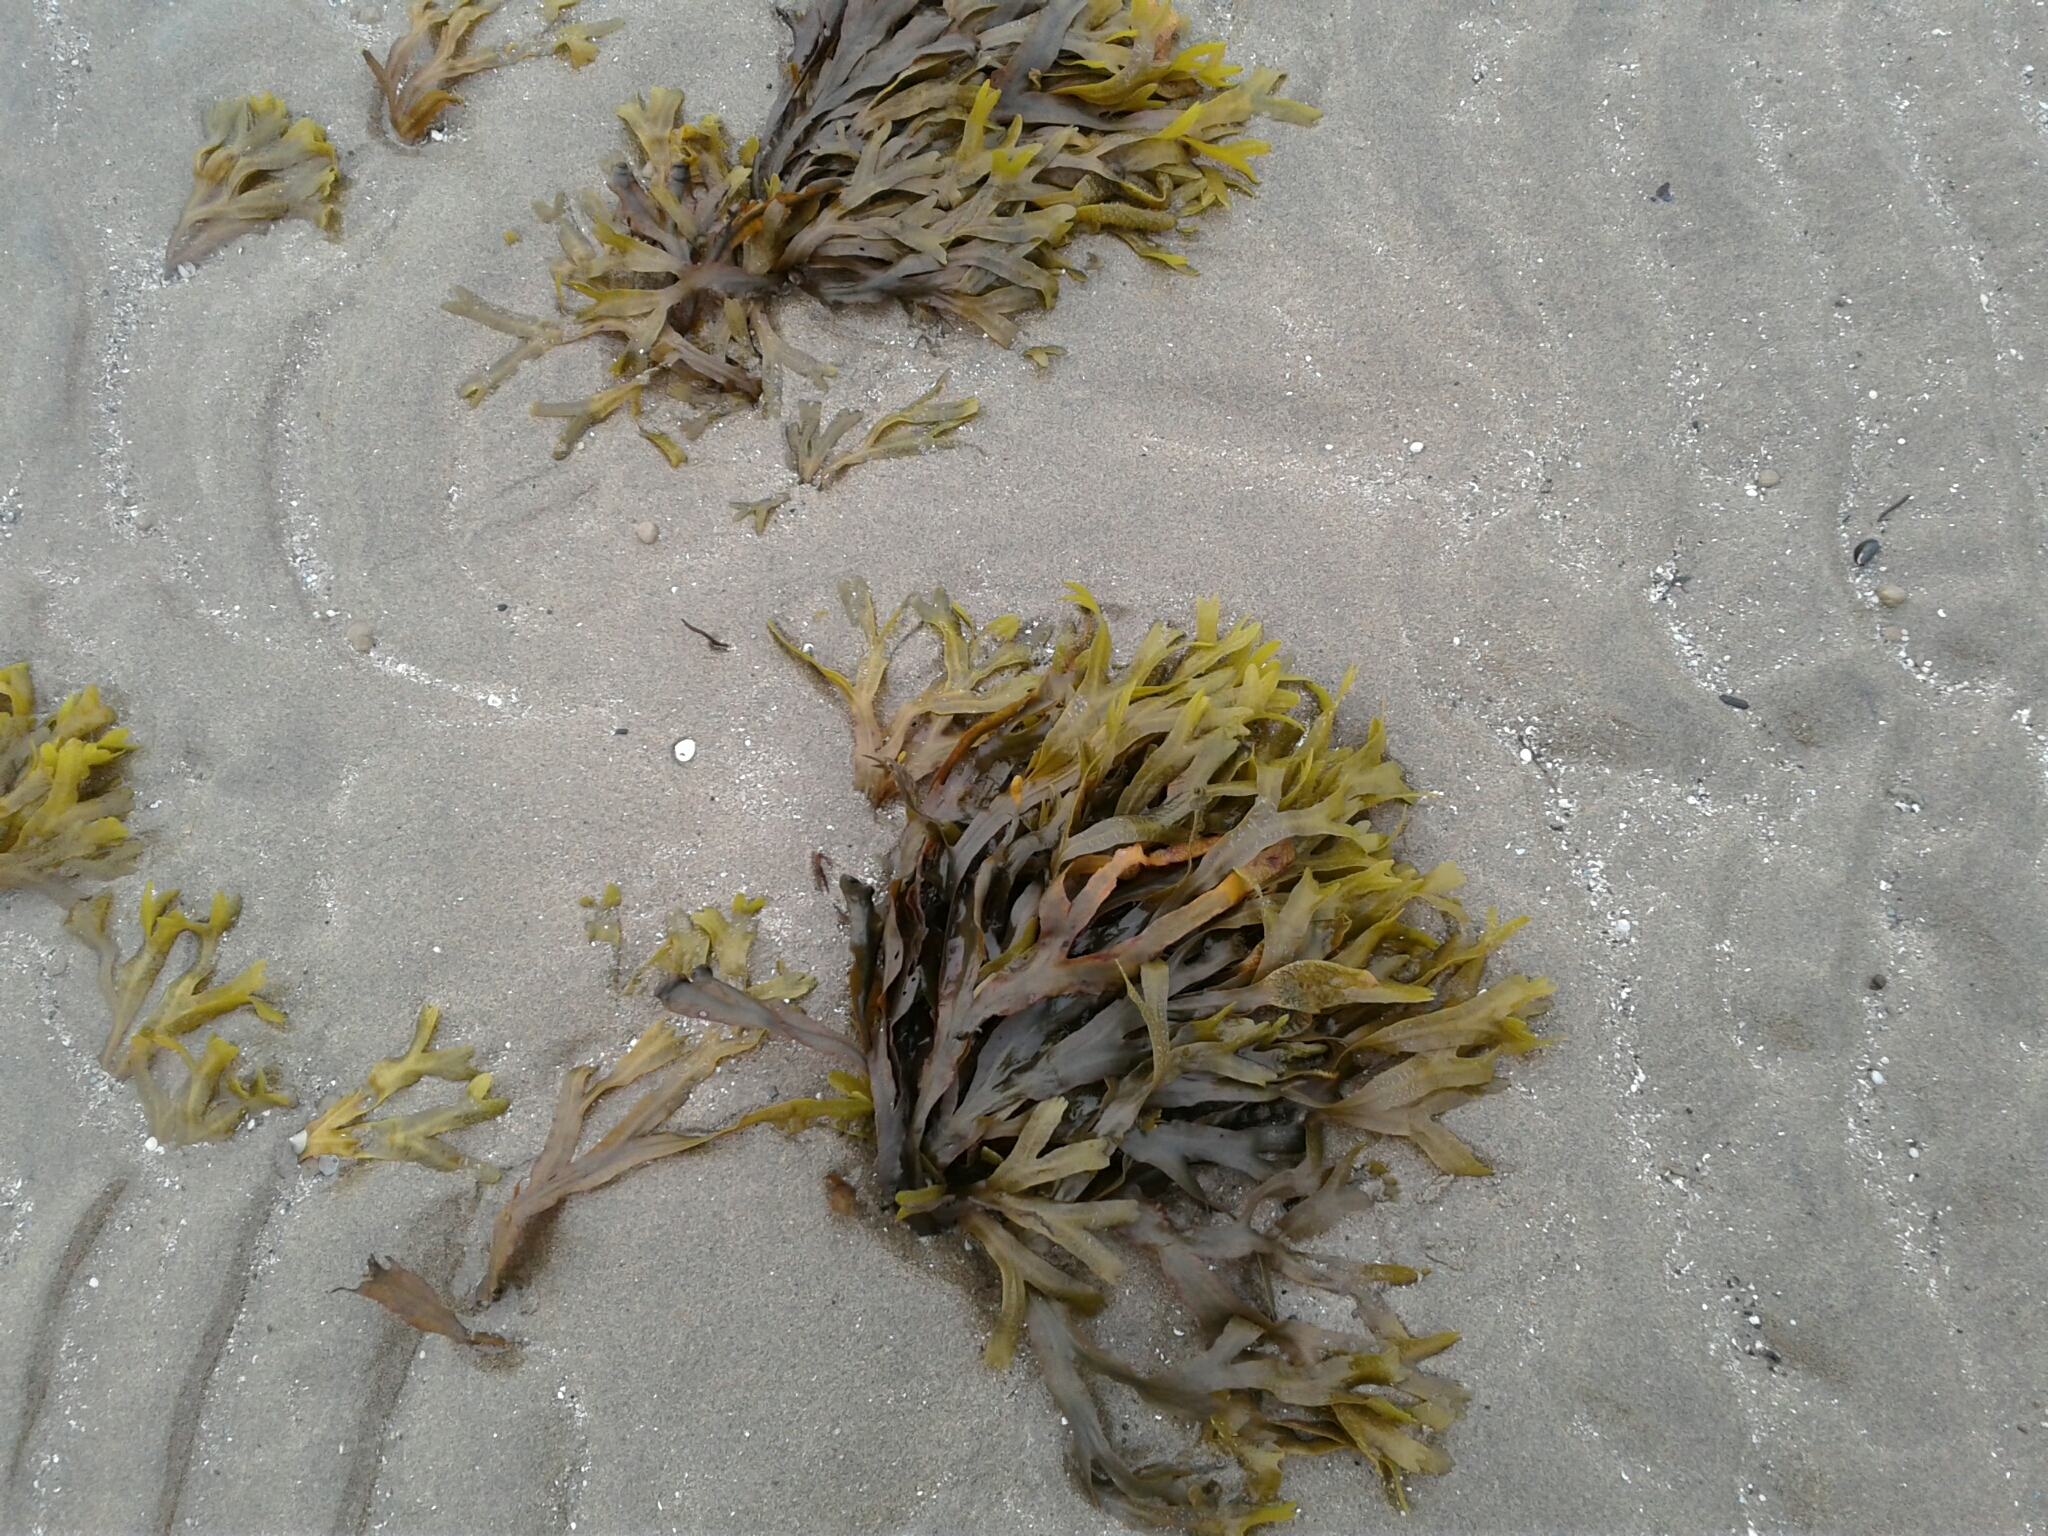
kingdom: Chromista
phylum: Ochrophyta
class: Phaeophyceae
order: Fucales
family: Fucaceae
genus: Fucus
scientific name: Fucus distichus
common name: Rockweed
